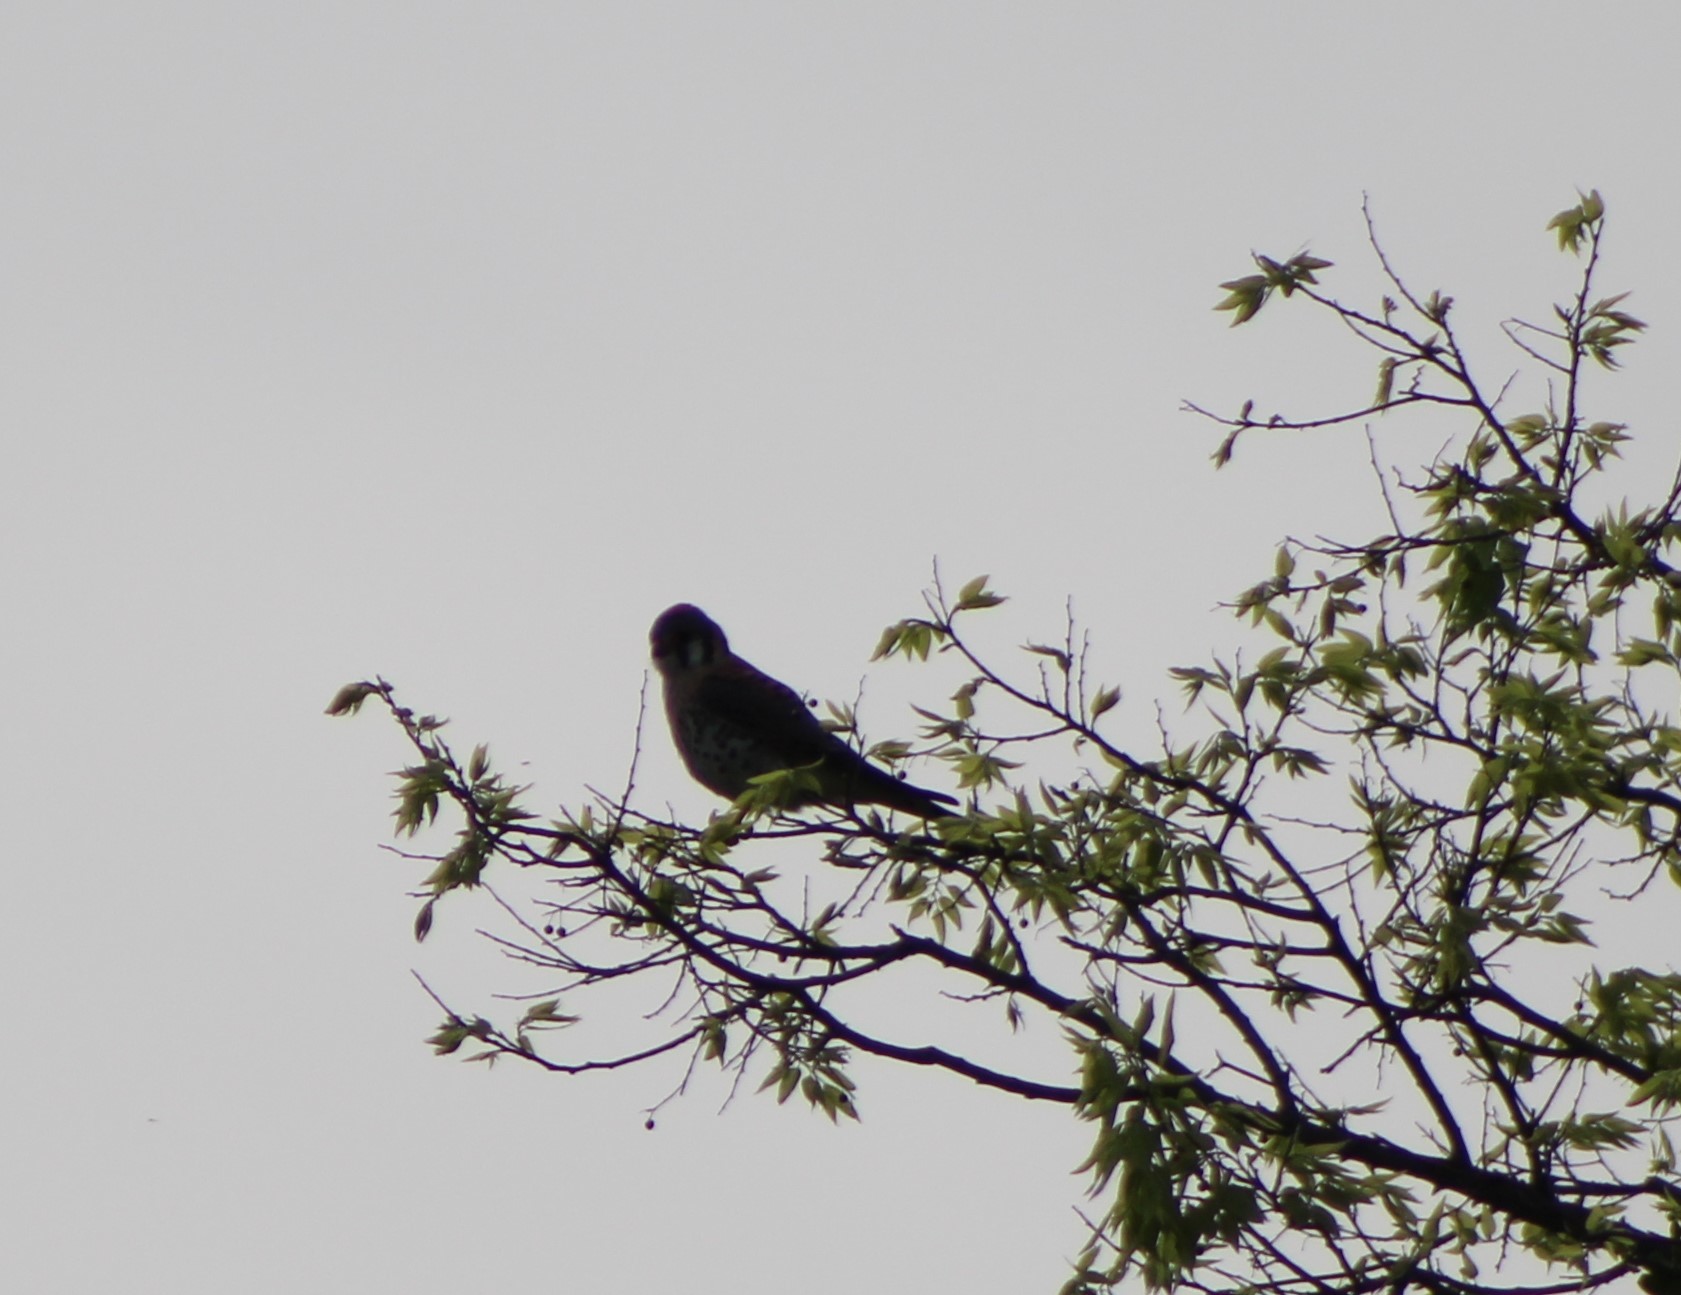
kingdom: Animalia
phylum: Chordata
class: Aves
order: Falconiformes
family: Falconidae
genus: Falco
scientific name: Falco sparverius
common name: American kestrel
